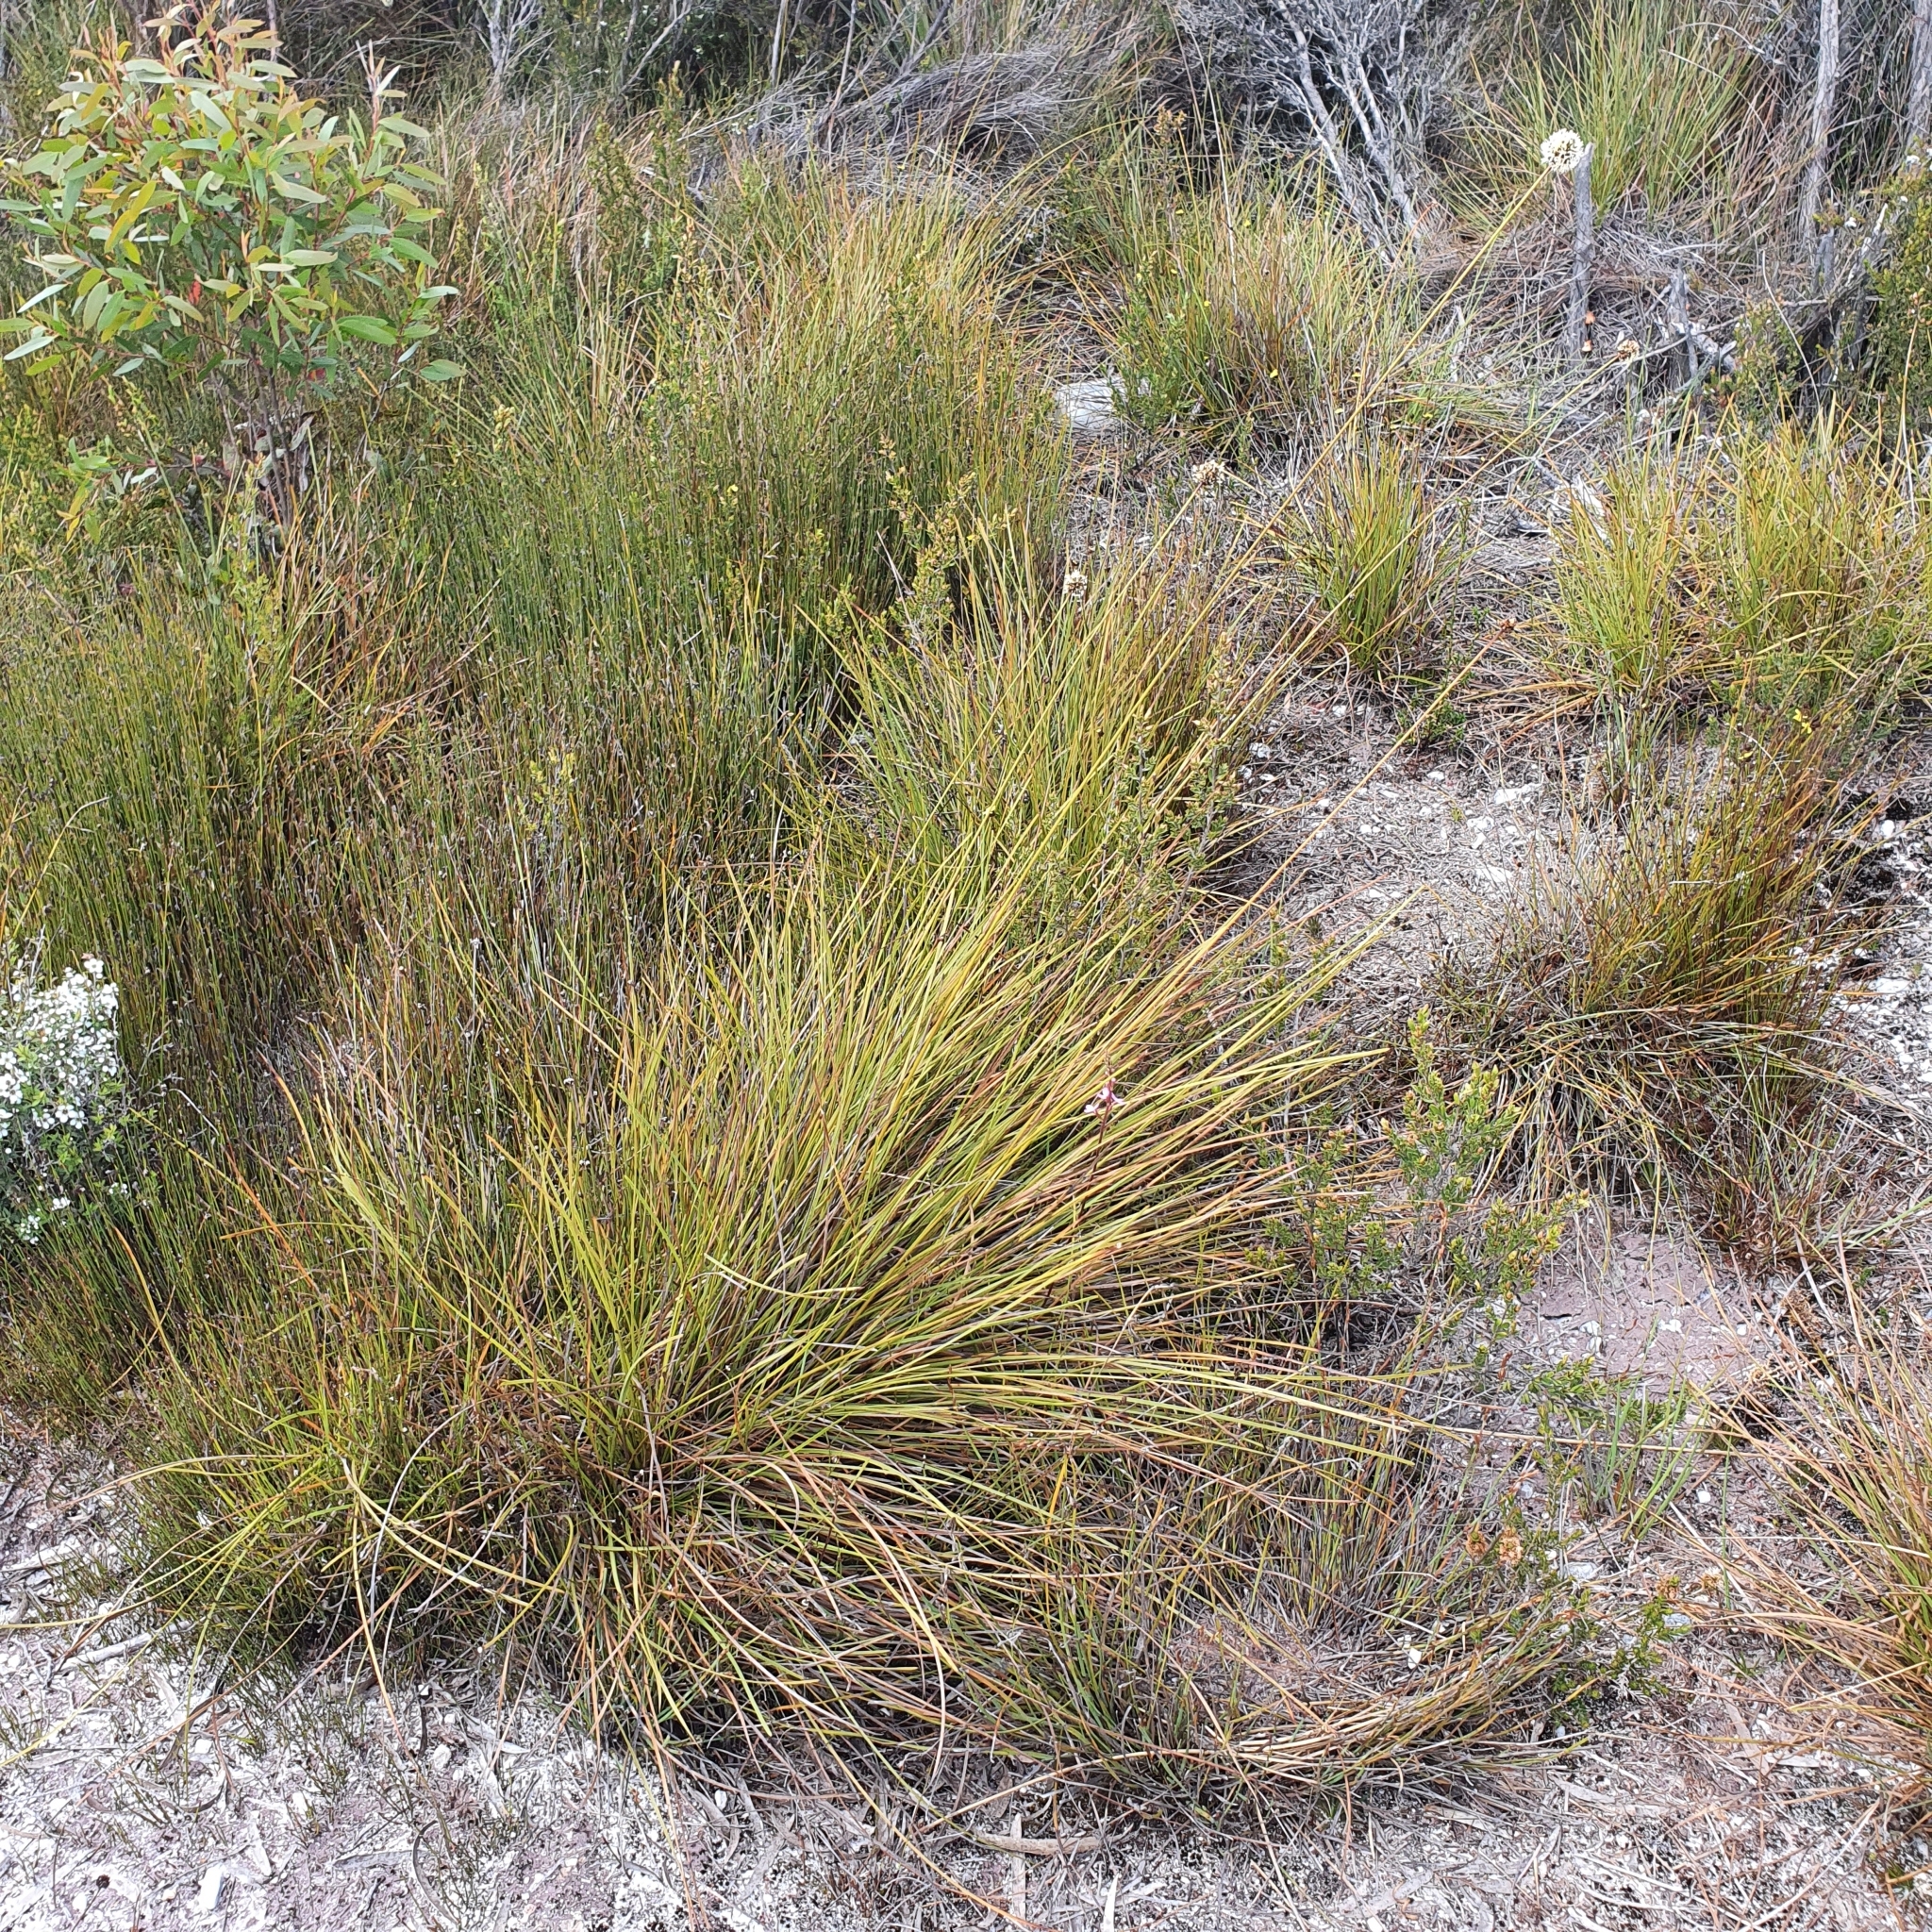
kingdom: Plantae
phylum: Tracheophyta
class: Liliopsida
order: Poales
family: Cyperaceae
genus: Gymnoschoenus
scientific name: Gymnoschoenus sphaerocephalus
